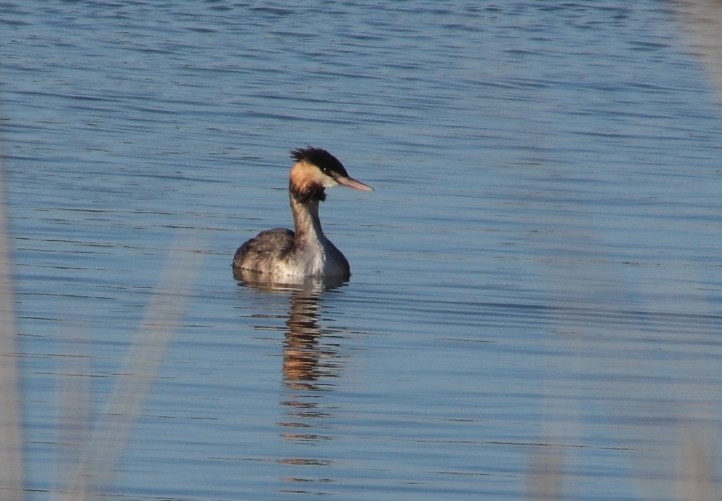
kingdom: Animalia
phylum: Chordata
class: Aves
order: Podicipediformes
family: Podicipedidae
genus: Podiceps
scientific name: Podiceps cristatus
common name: Great crested grebe
